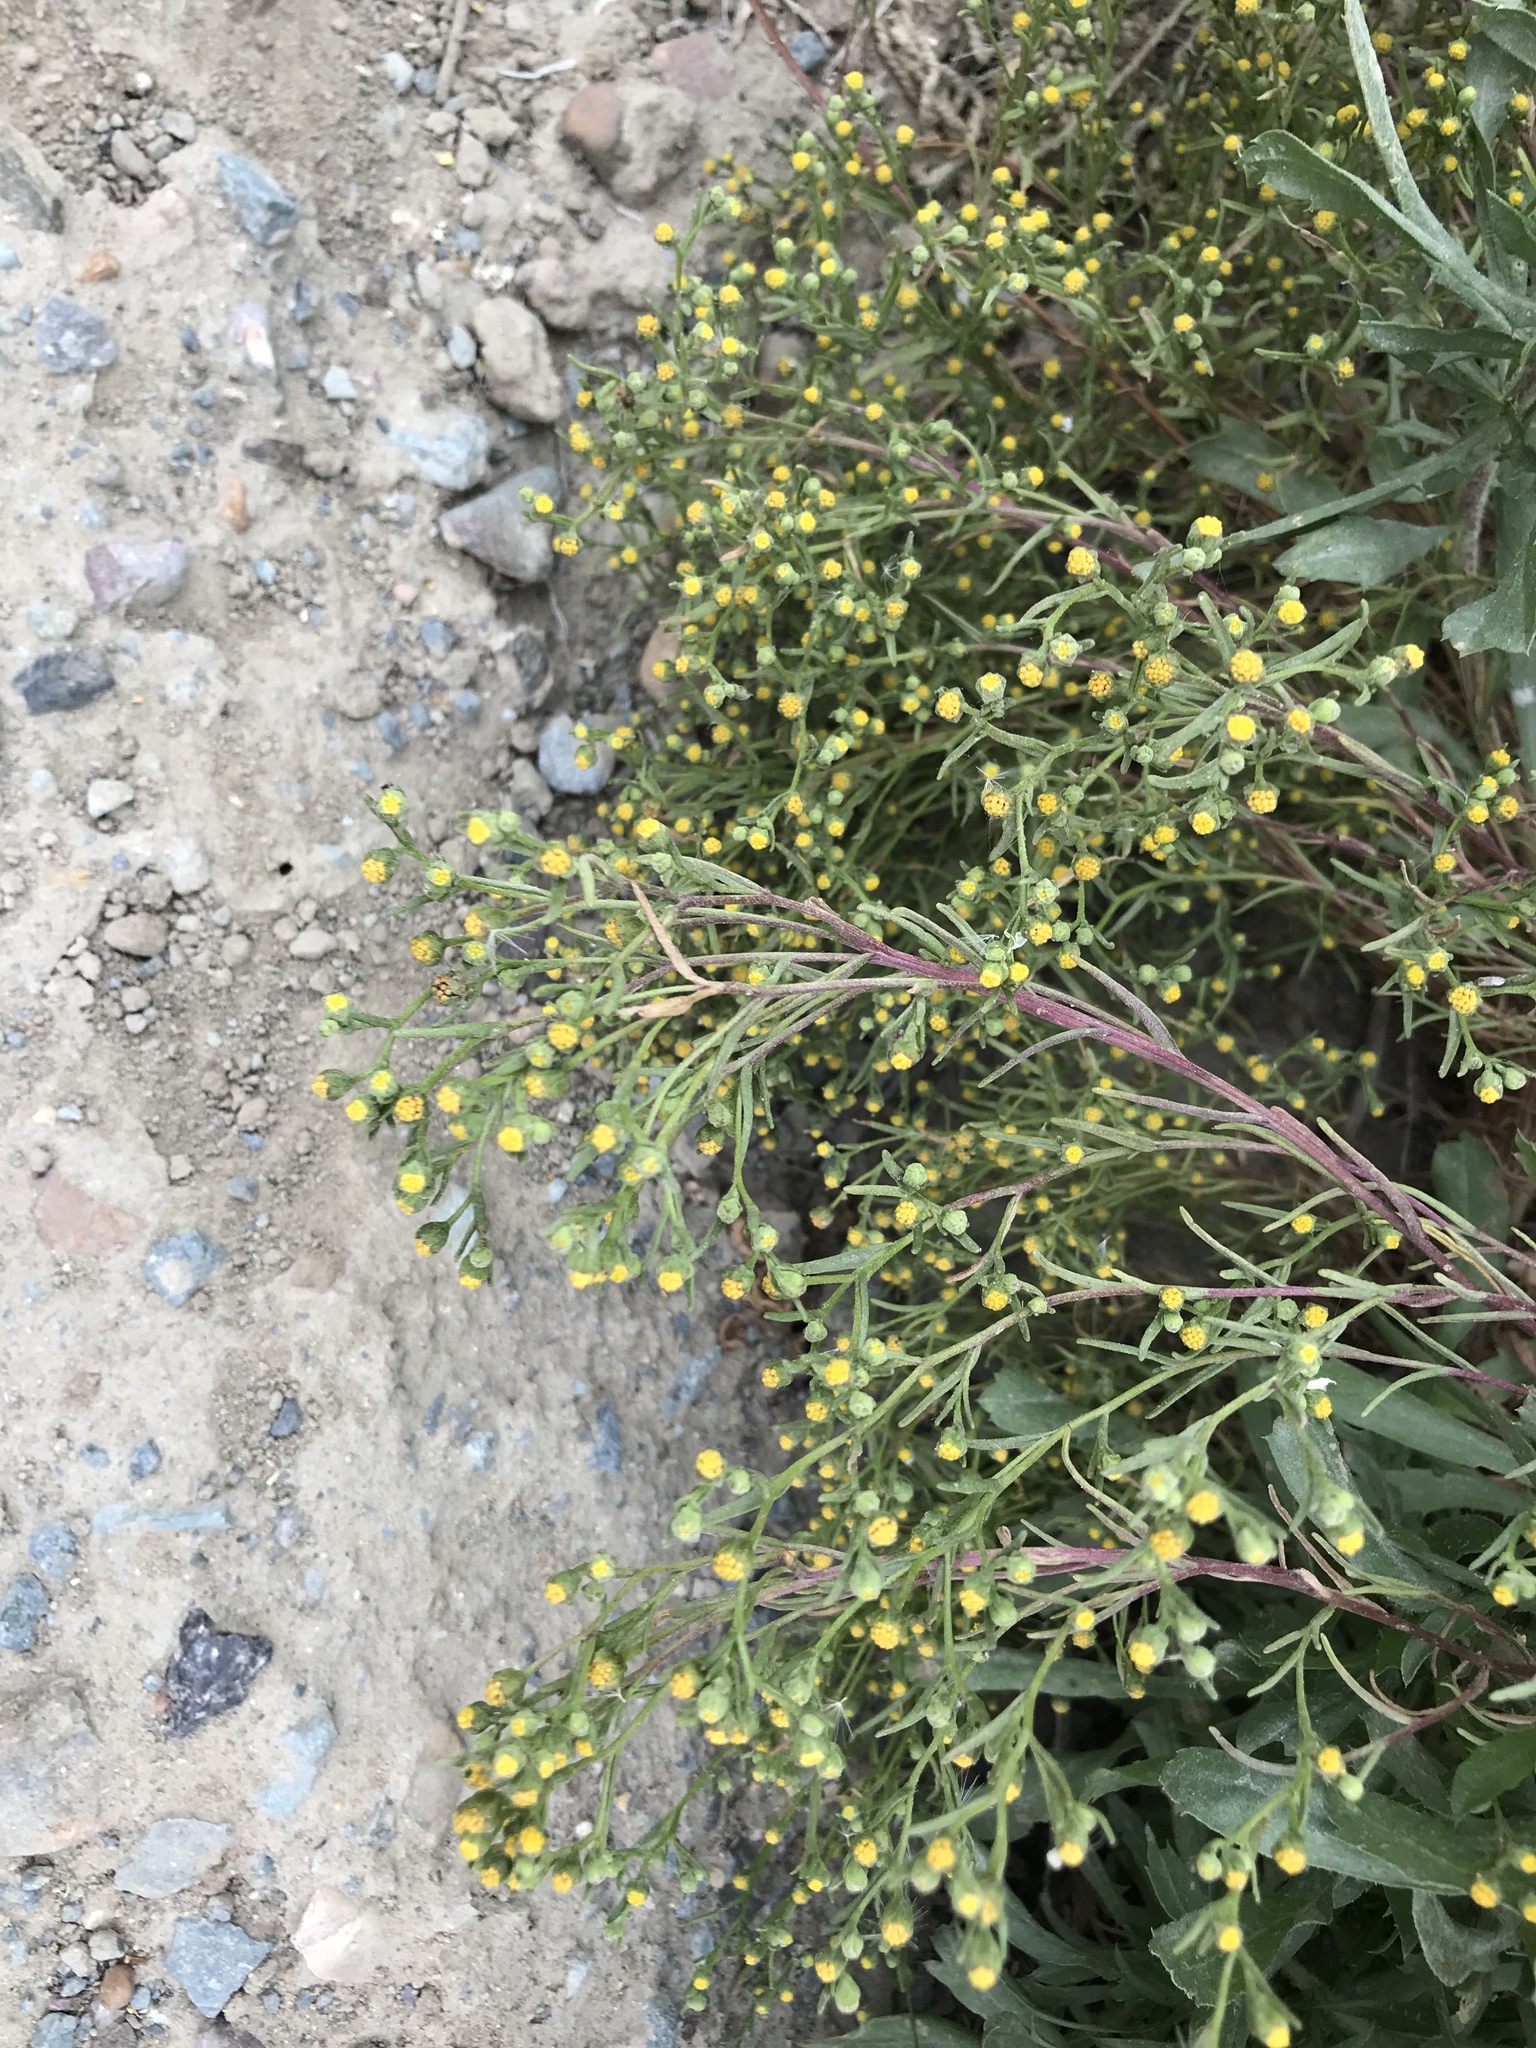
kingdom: Plantae
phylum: Tracheophyta
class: Magnoliopsida
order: Asterales
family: Asteraceae
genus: Amblyopappus
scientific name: Amblyopappus pusillus
